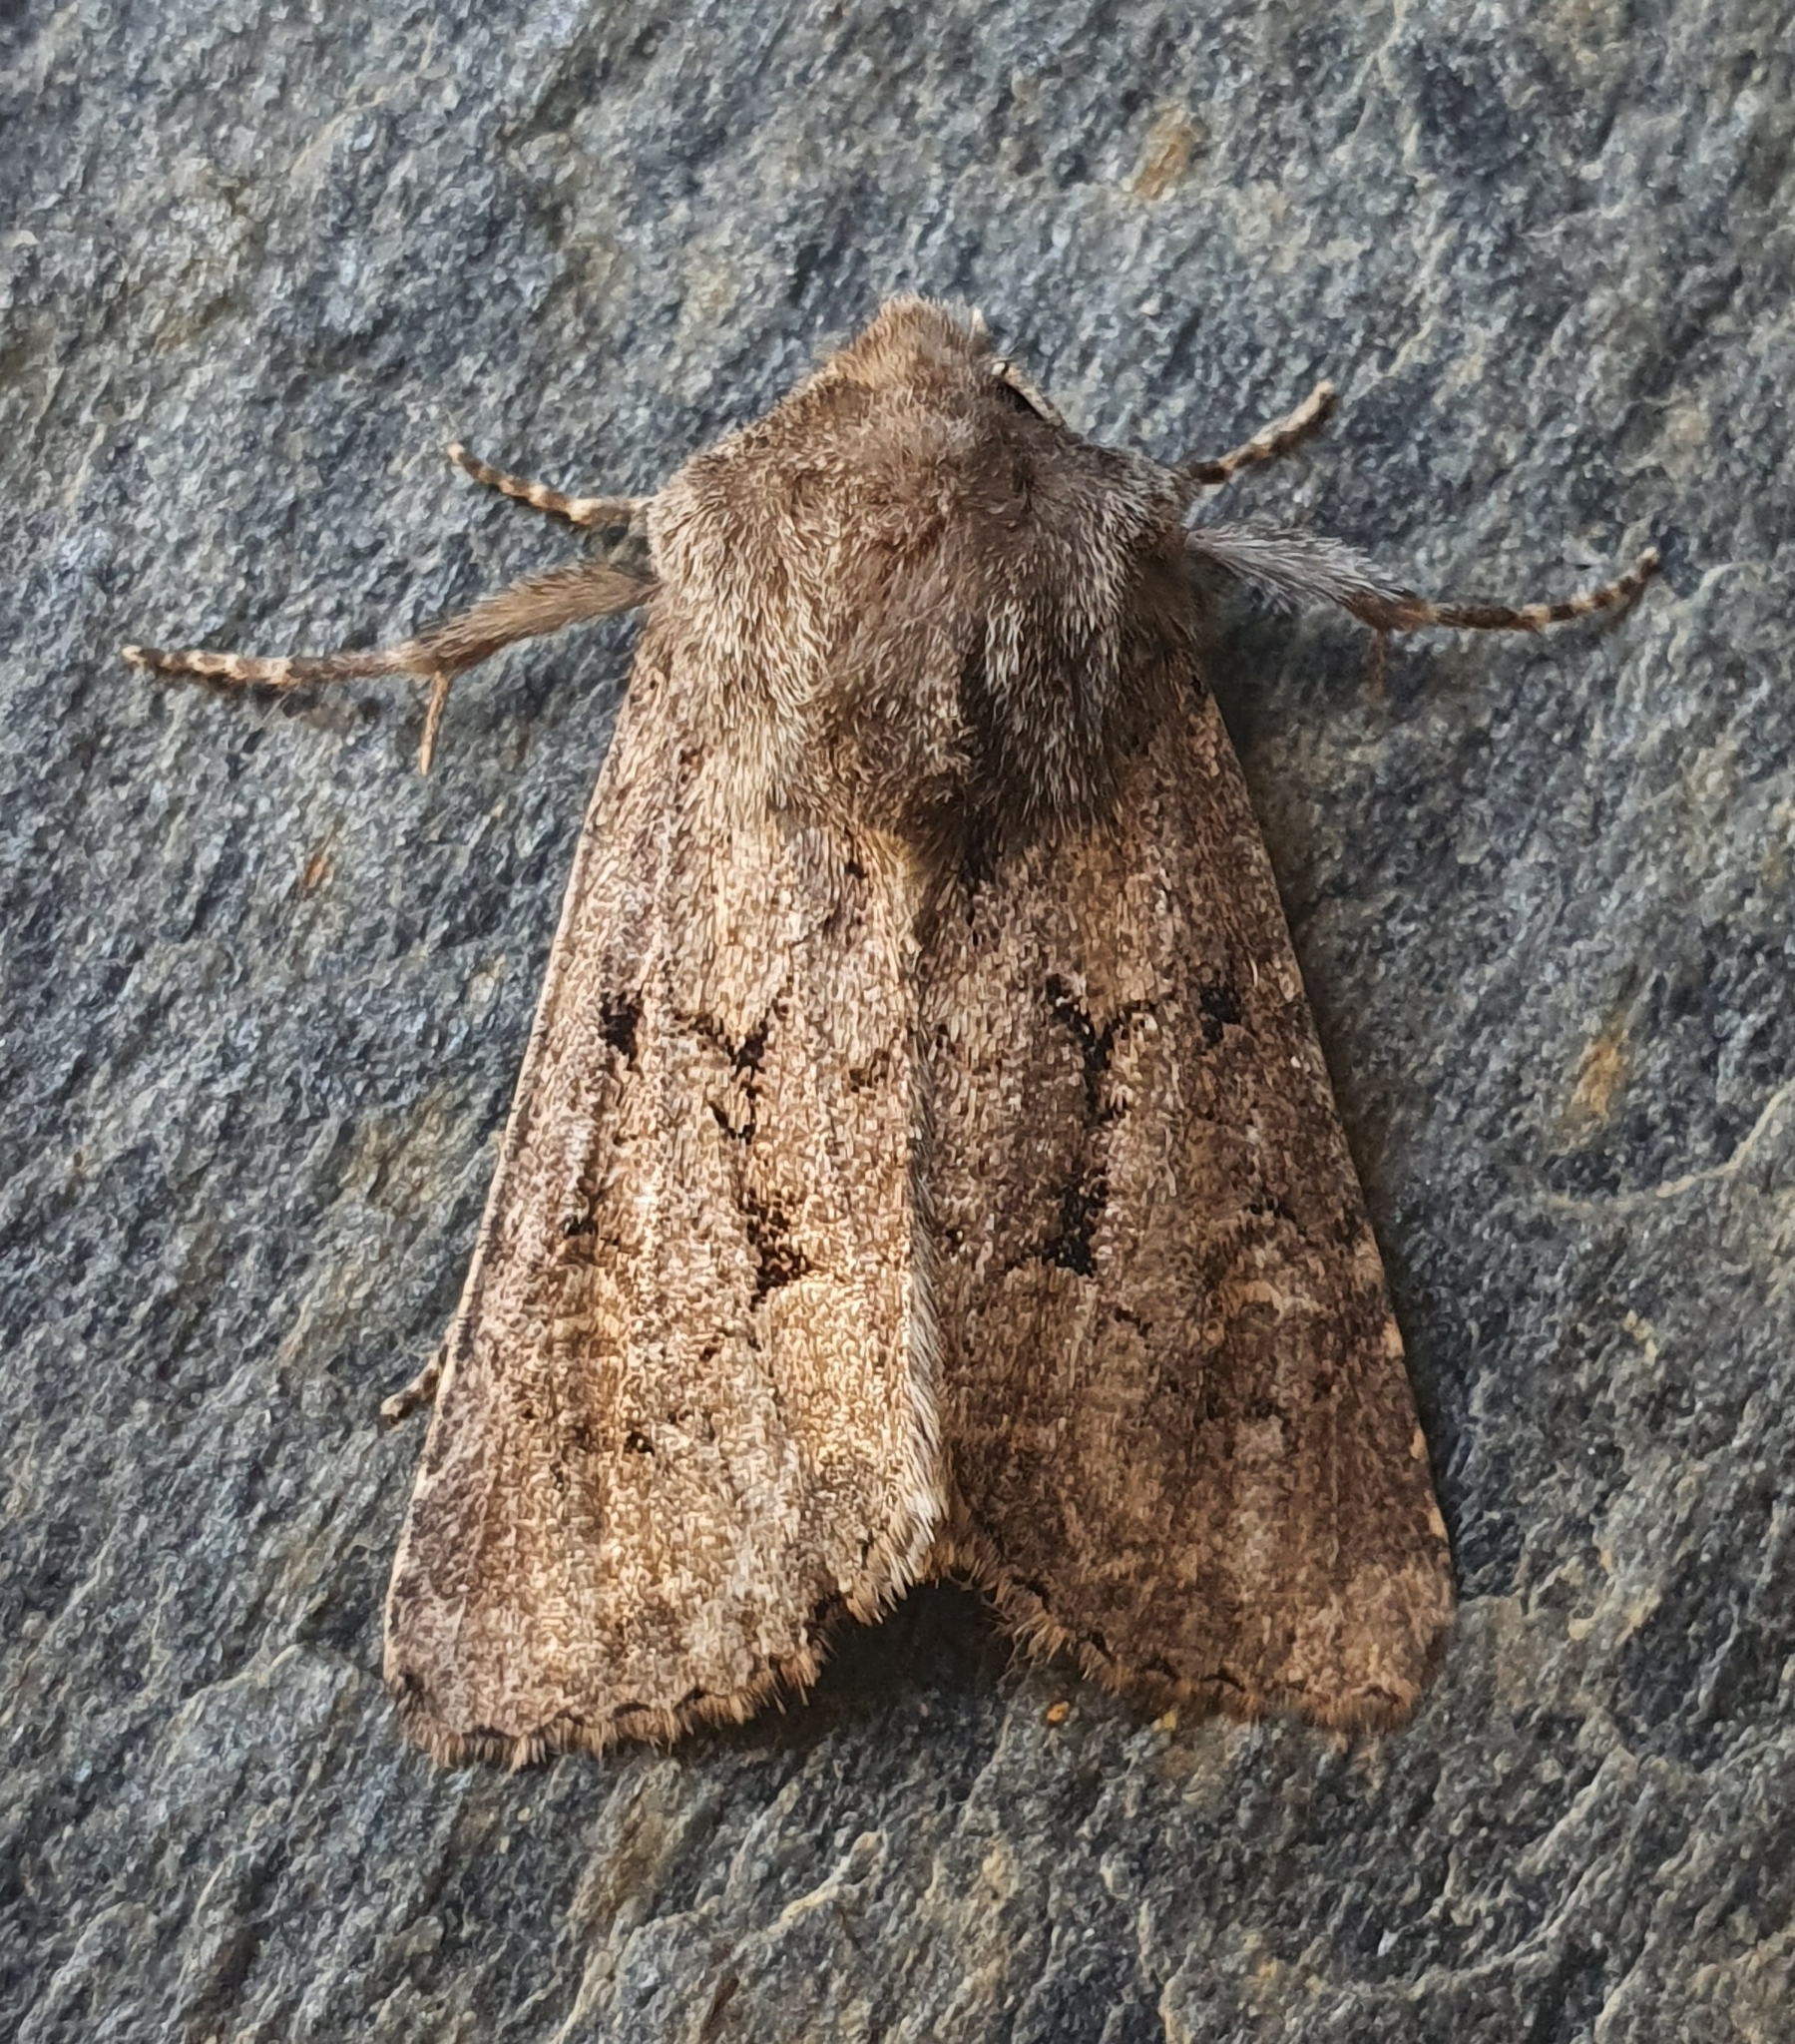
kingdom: Animalia
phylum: Arthropoda
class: Insecta
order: Lepidoptera
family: Noctuidae
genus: Luperina
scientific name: Luperina testacea
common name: Flounced rustic
